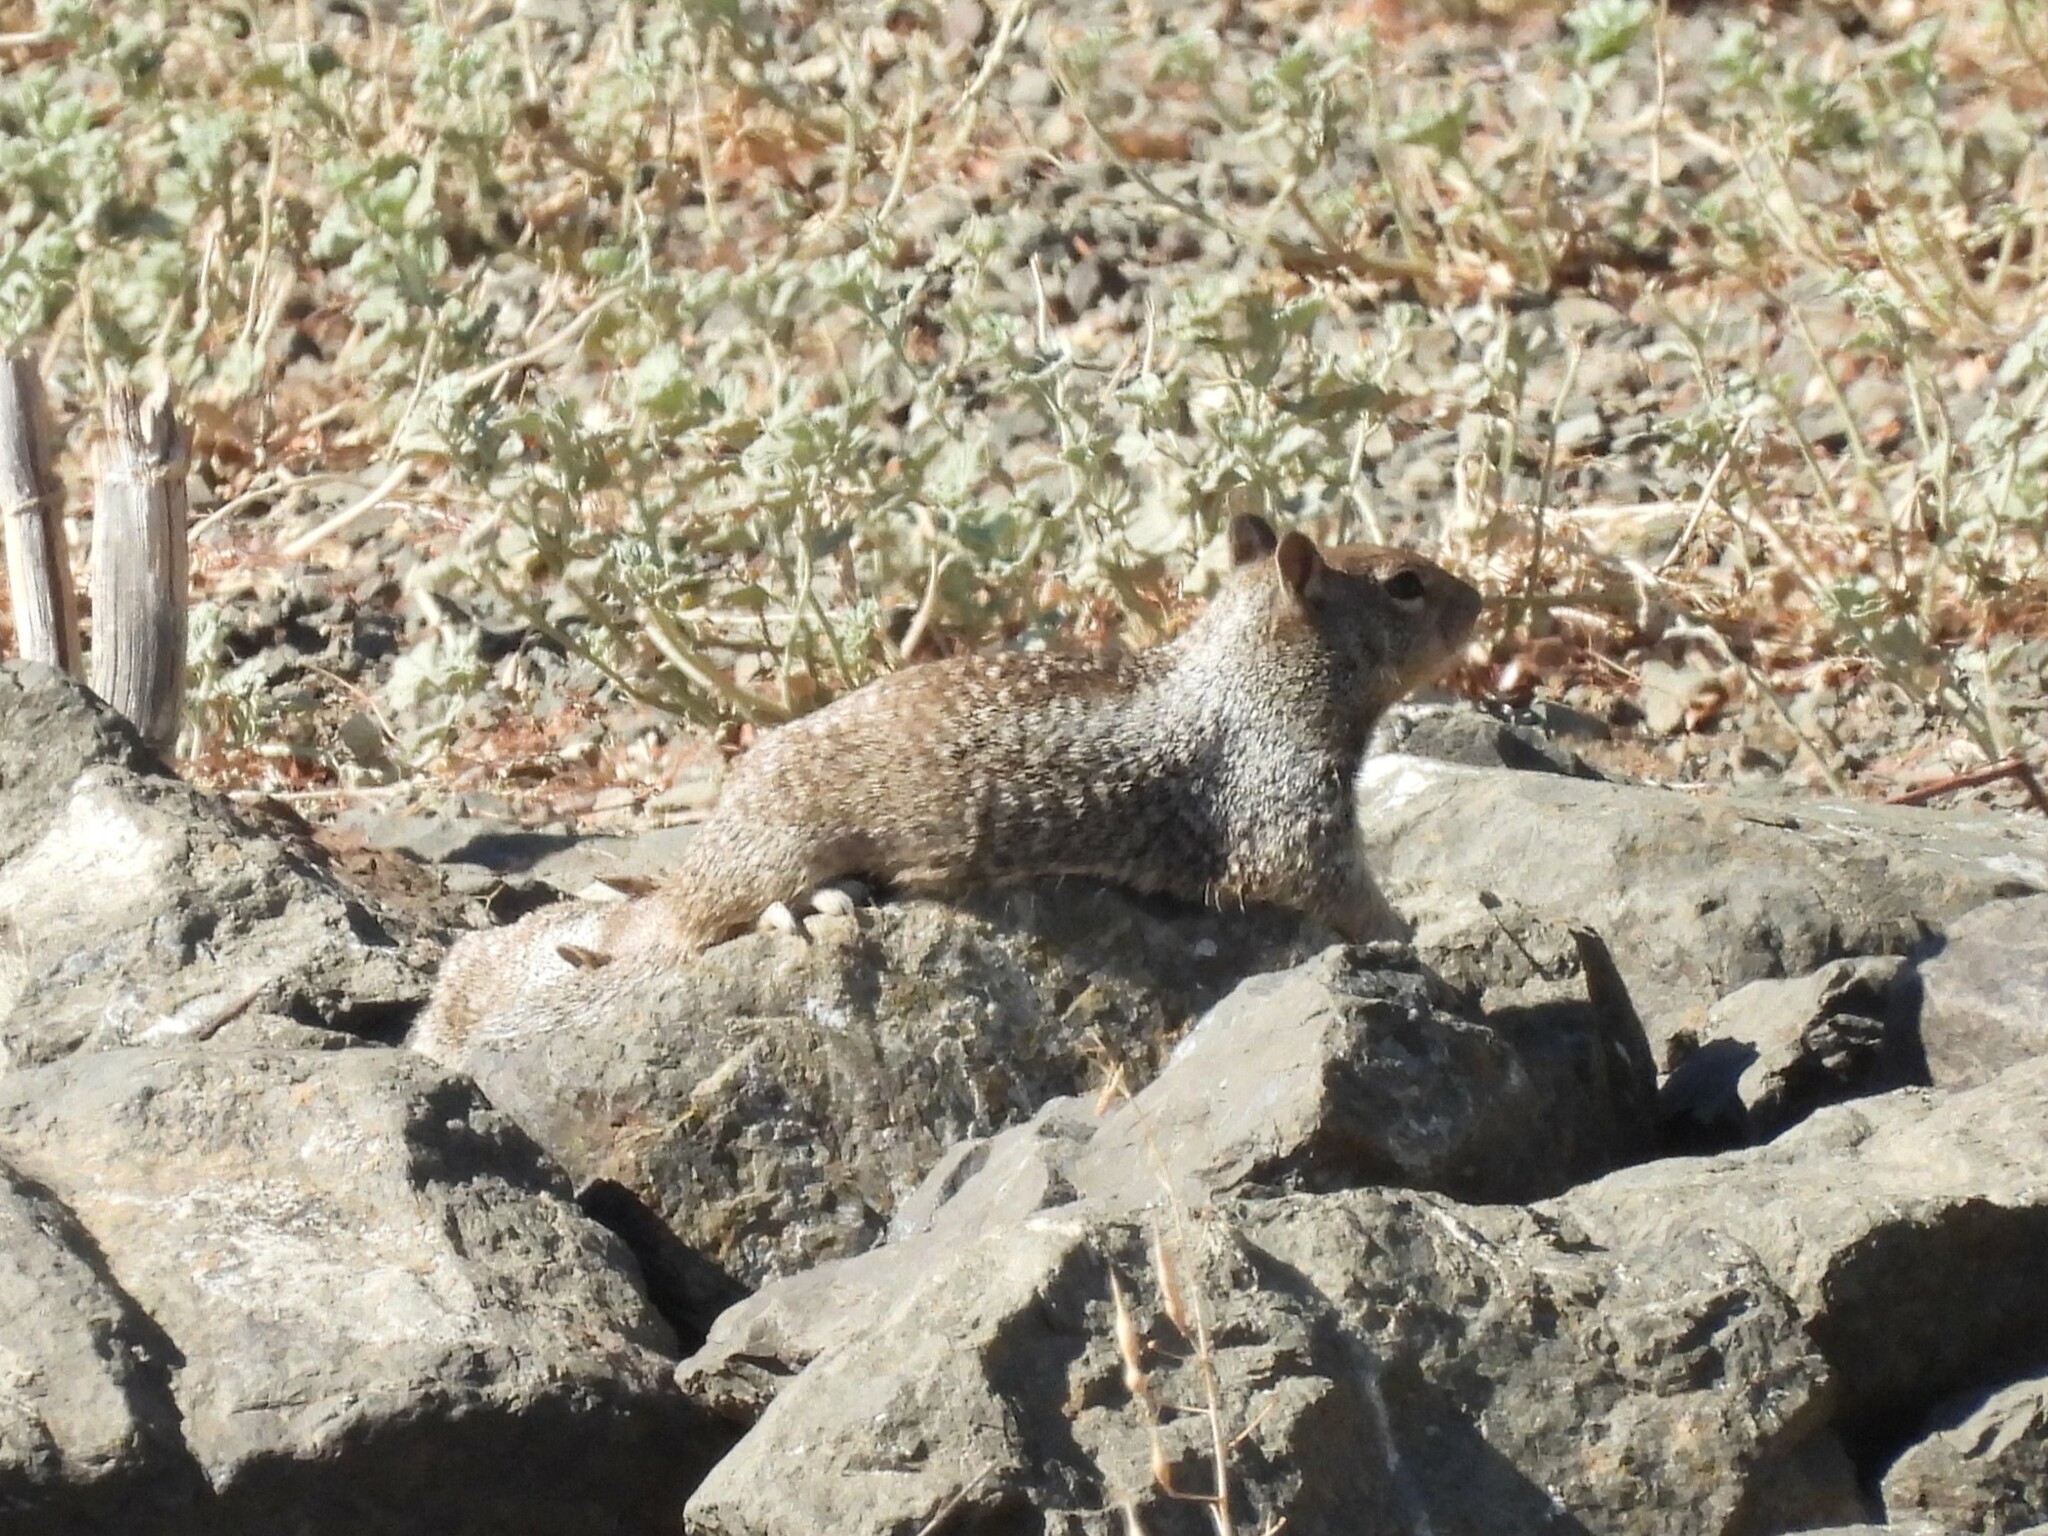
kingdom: Animalia
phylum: Chordata
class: Mammalia
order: Rodentia
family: Sciuridae
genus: Otospermophilus
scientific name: Otospermophilus beecheyi
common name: California ground squirrel
